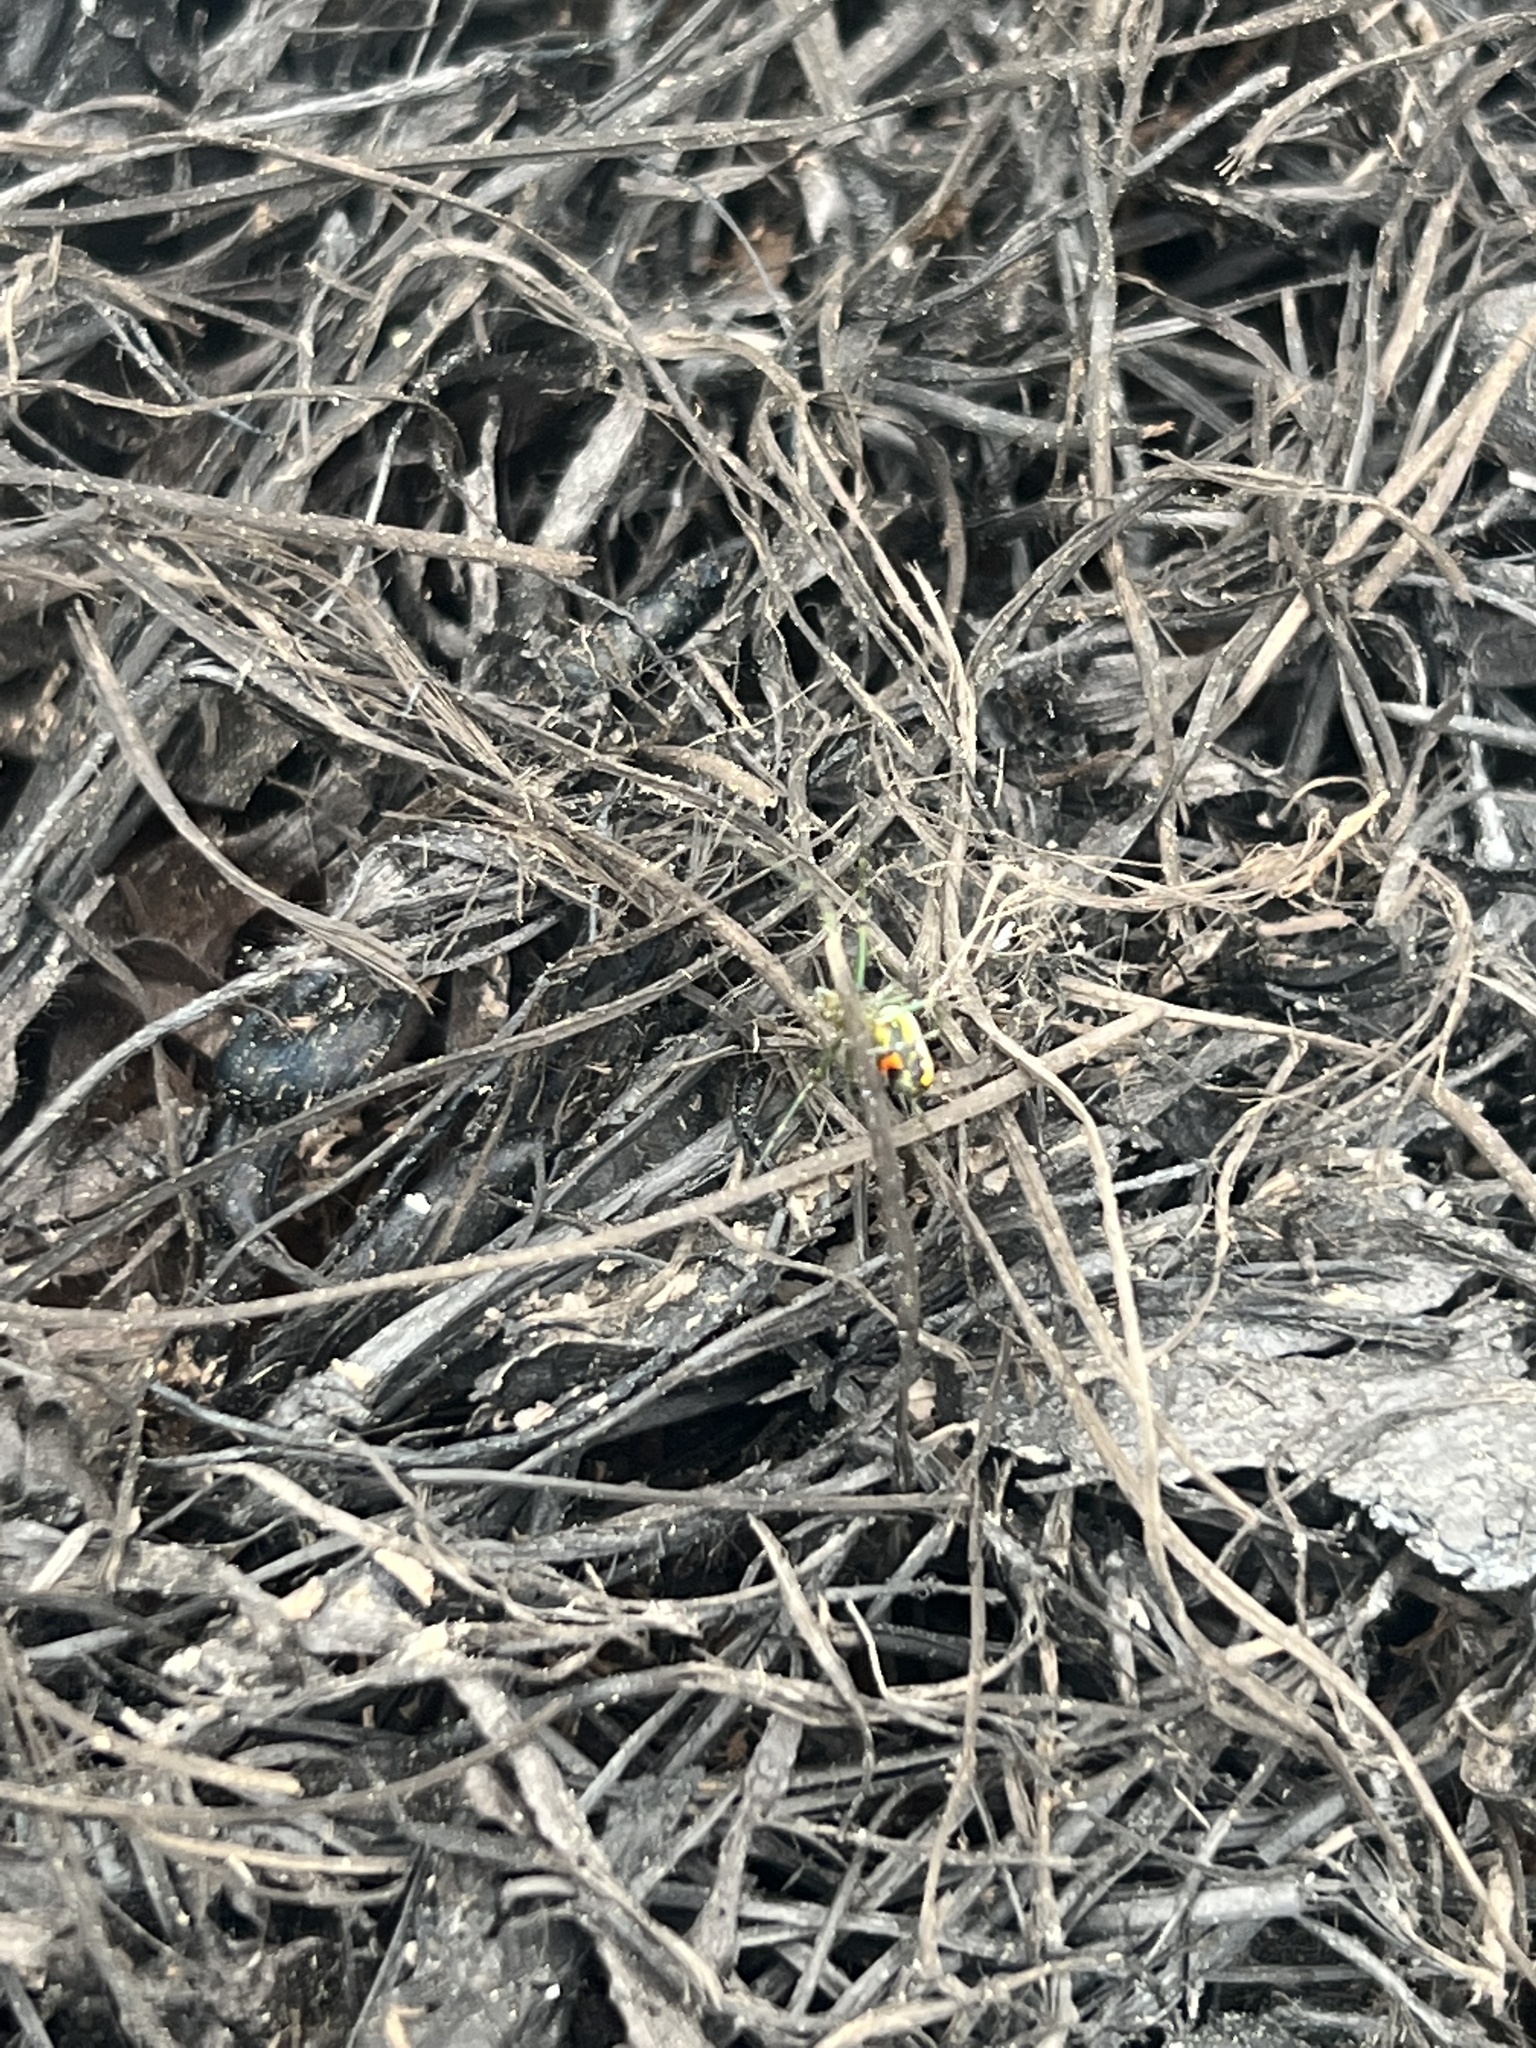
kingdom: Animalia
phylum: Arthropoda
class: Arachnida
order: Araneae
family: Tetragnathidae
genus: Leucauge
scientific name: Leucauge venusta
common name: Longjawed orb weavers
